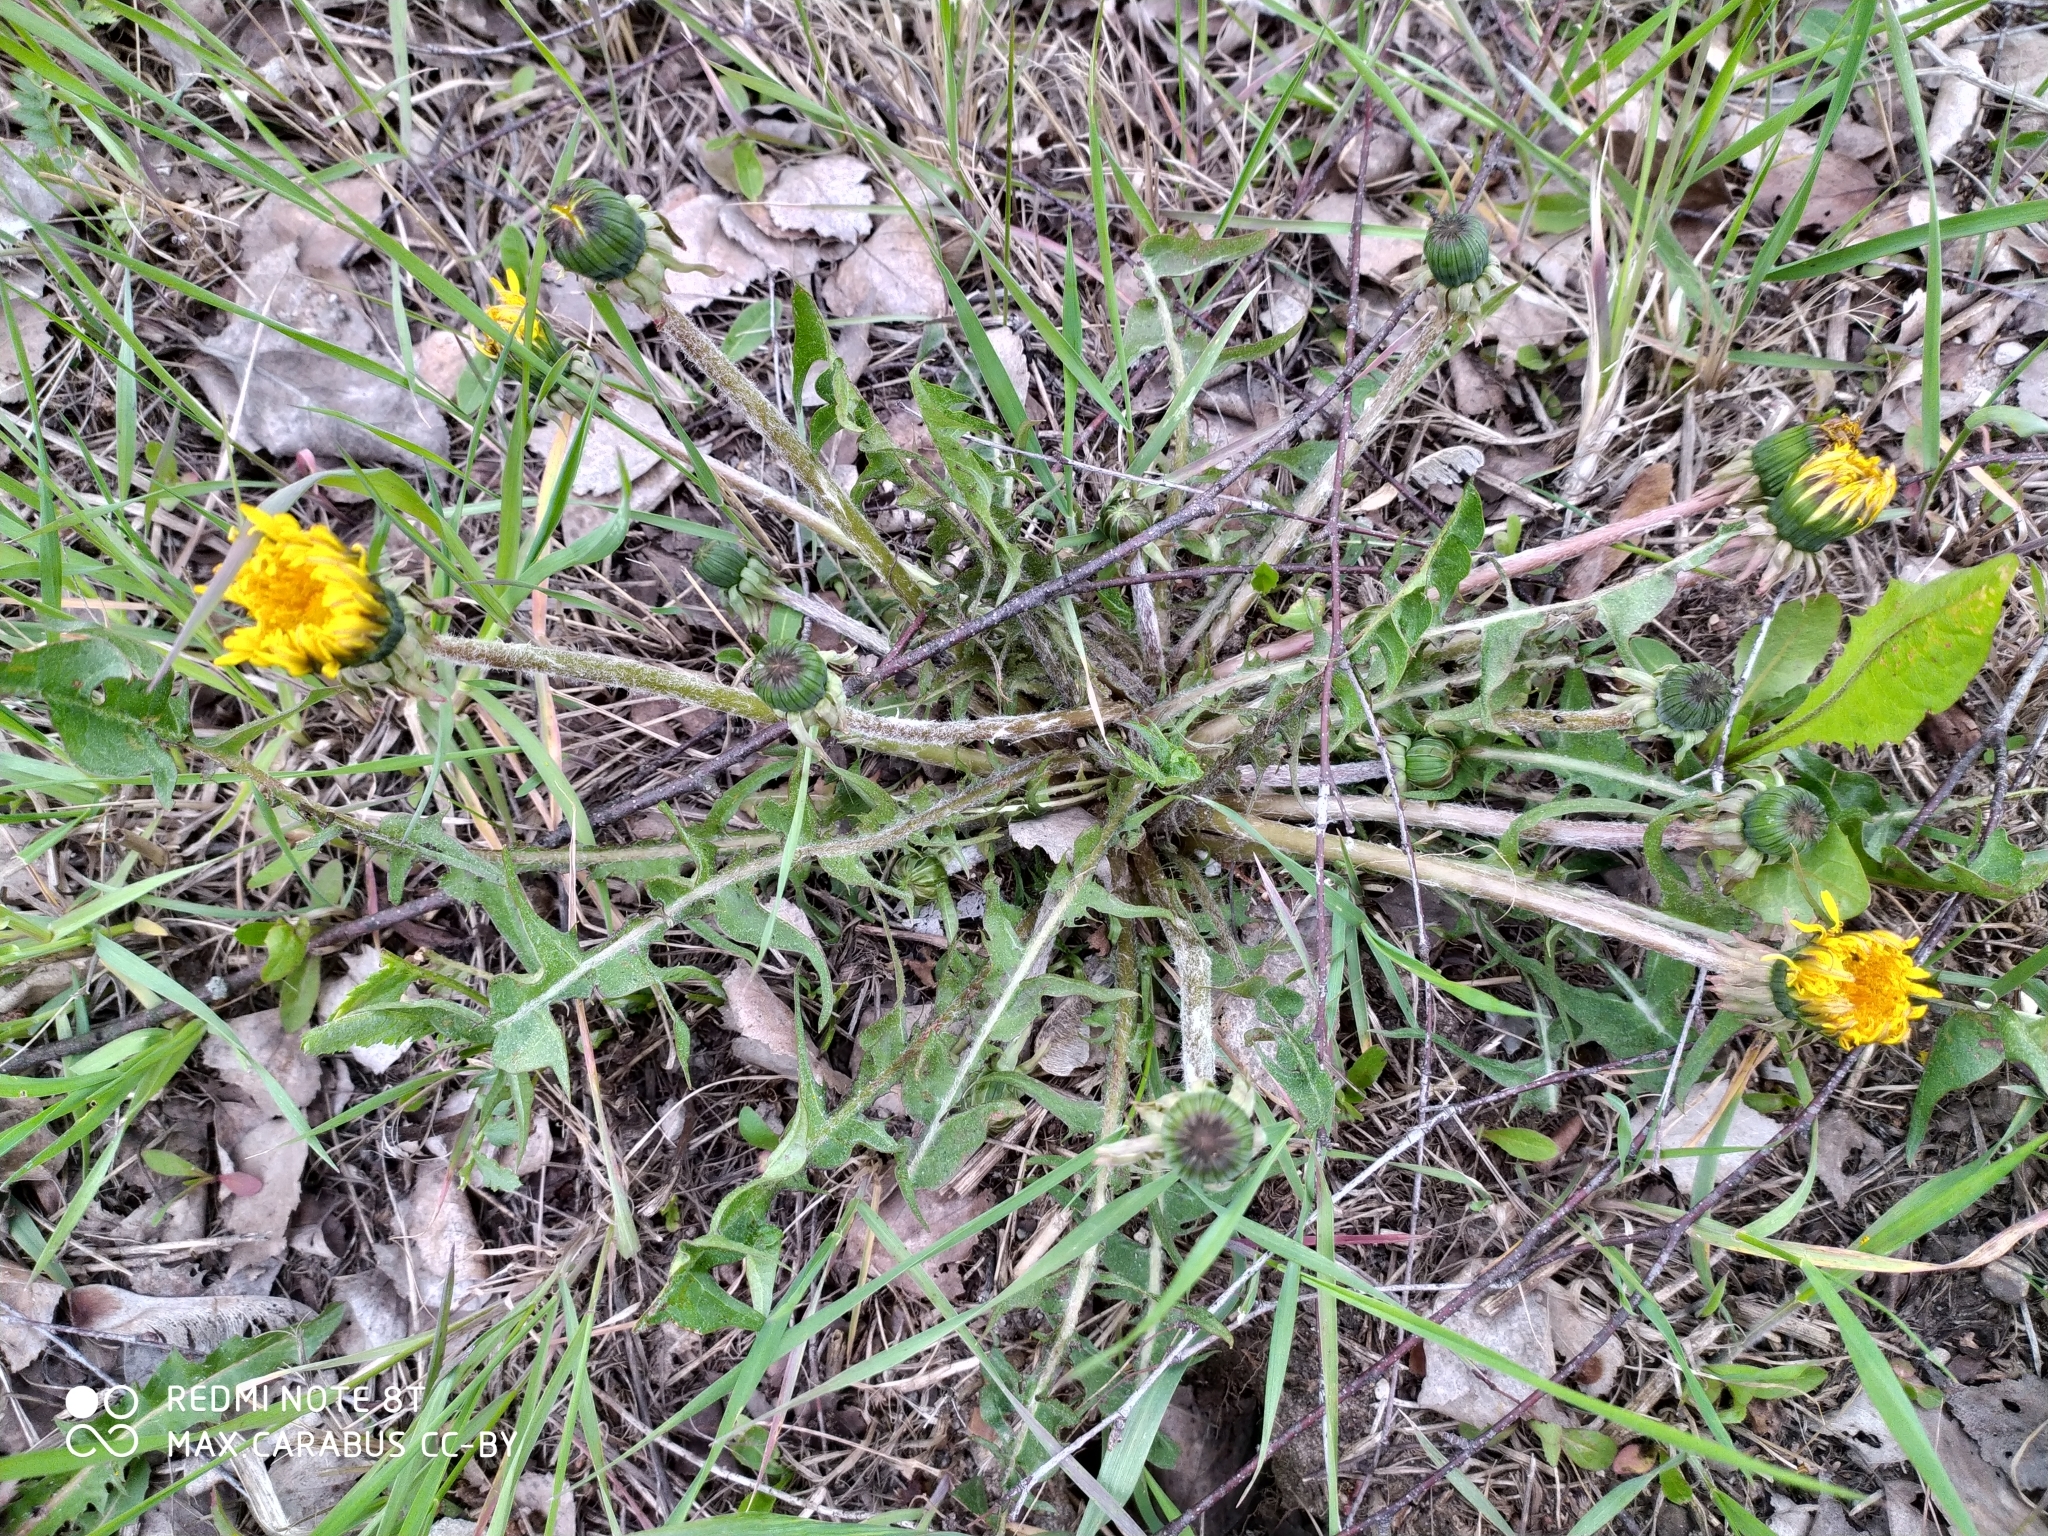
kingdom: Plantae
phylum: Tracheophyta
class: Magnoliopsida
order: Asterales
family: Asteraceae
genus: Taraxacum
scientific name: Taraxacum officinale
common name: Common dandelion
